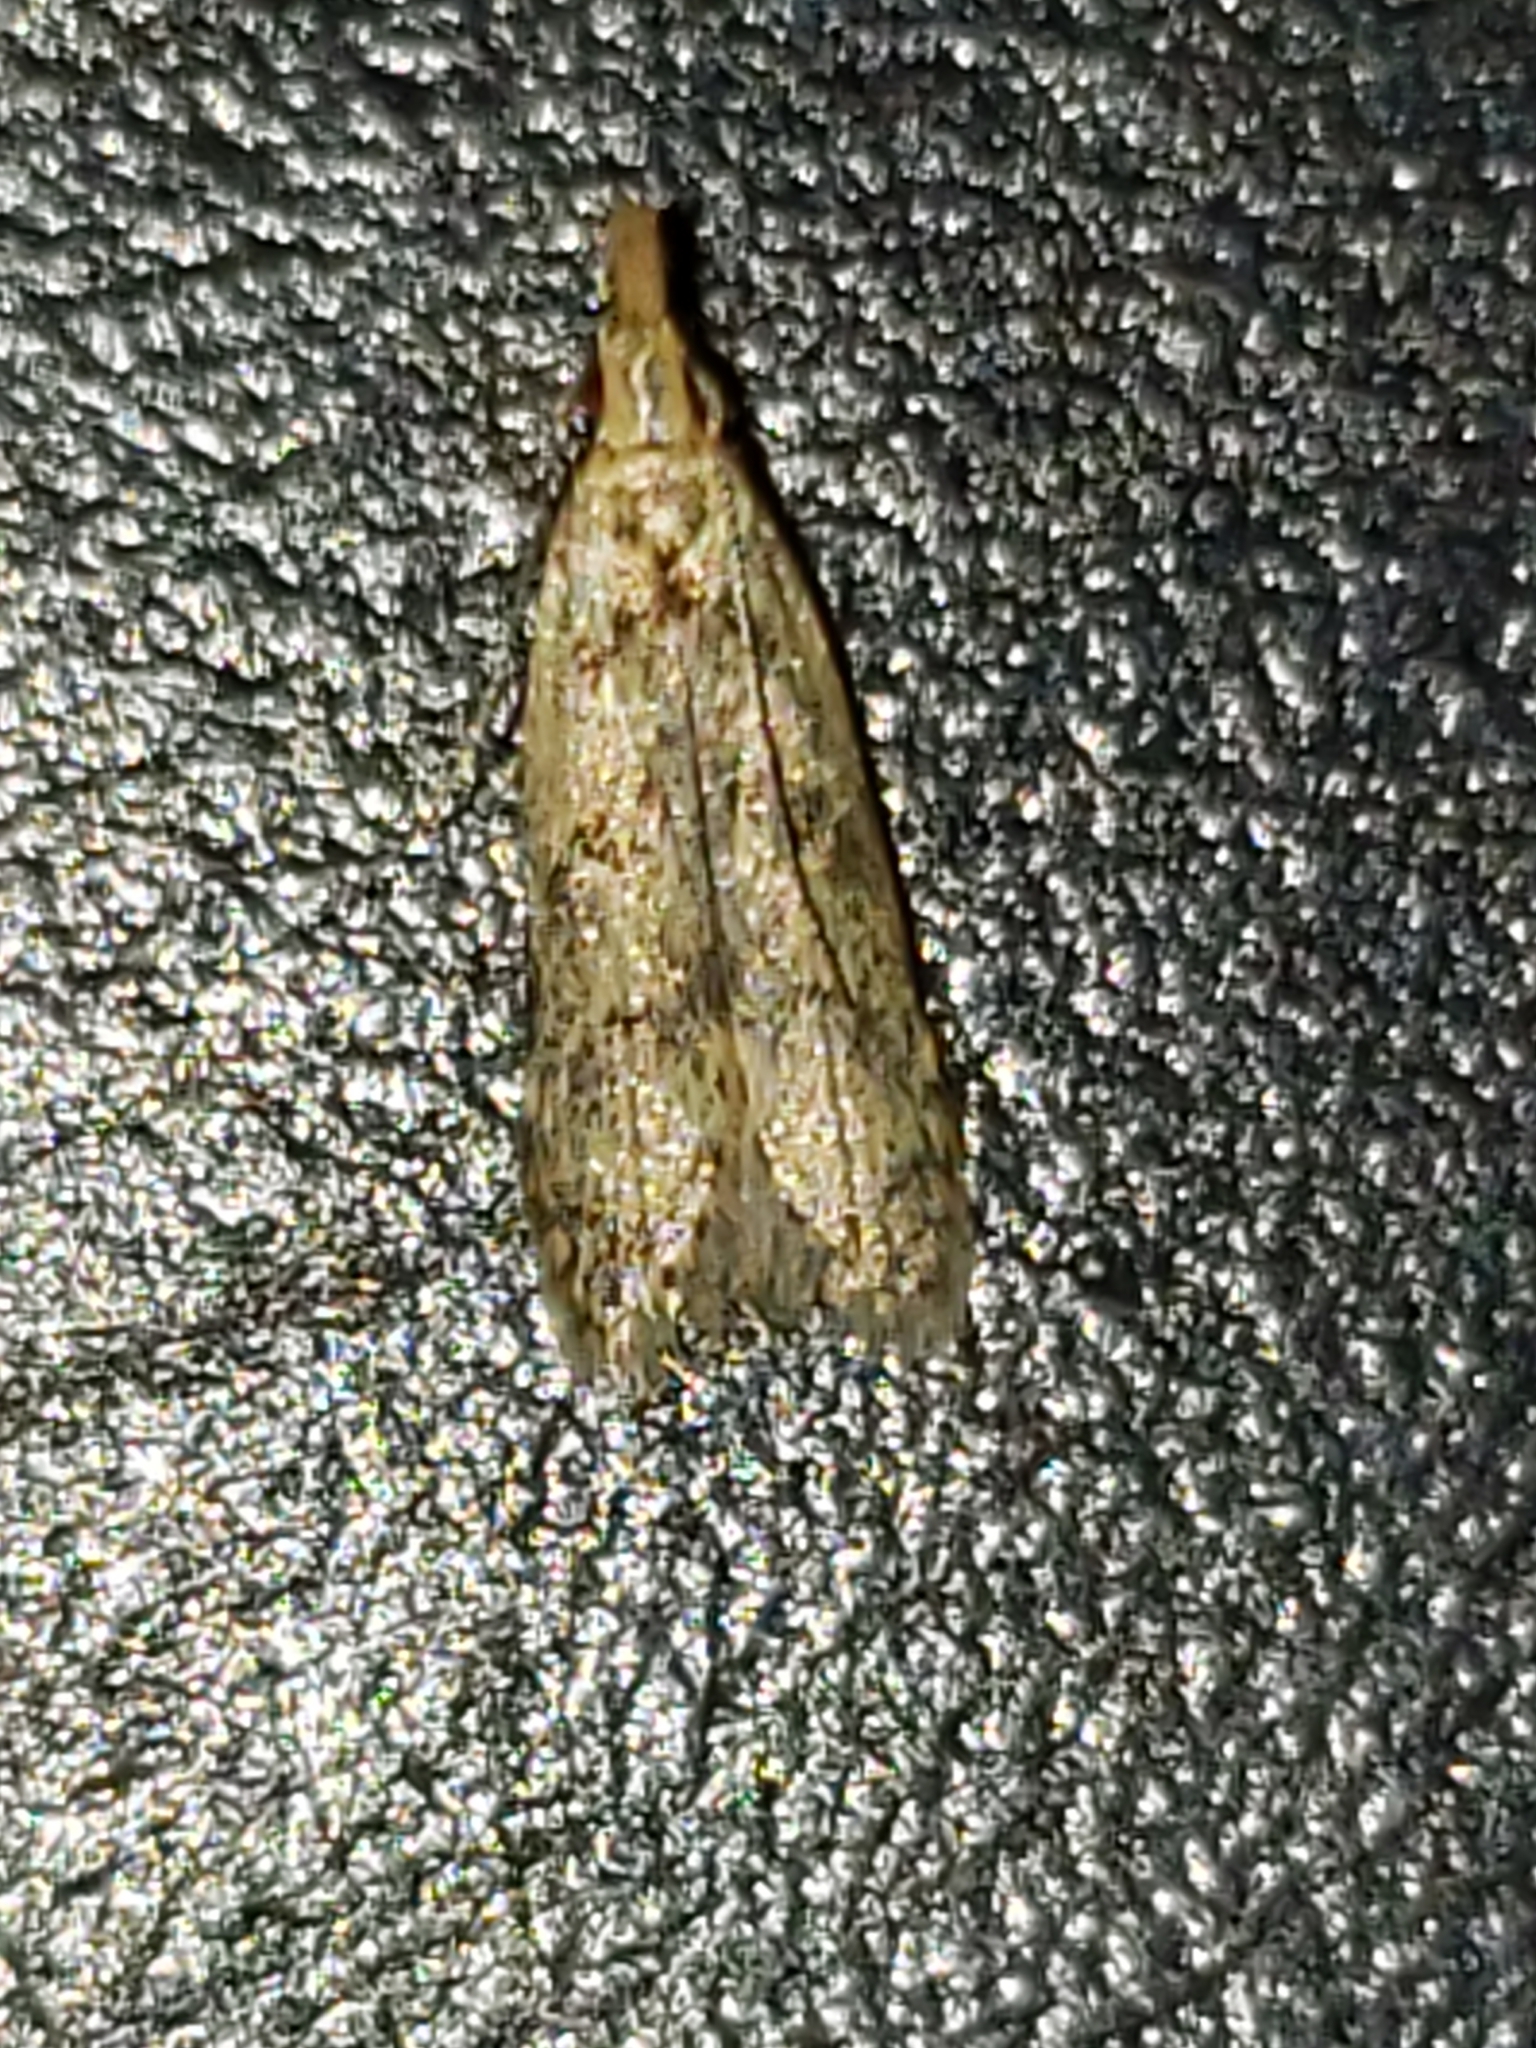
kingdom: Animalia
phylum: Arthropoda
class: Insecta
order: Lepidoptera
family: Gelechiidae
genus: Dichomeris
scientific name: Dichomeris punctipennella
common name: Many-spotted dichomeris moth
